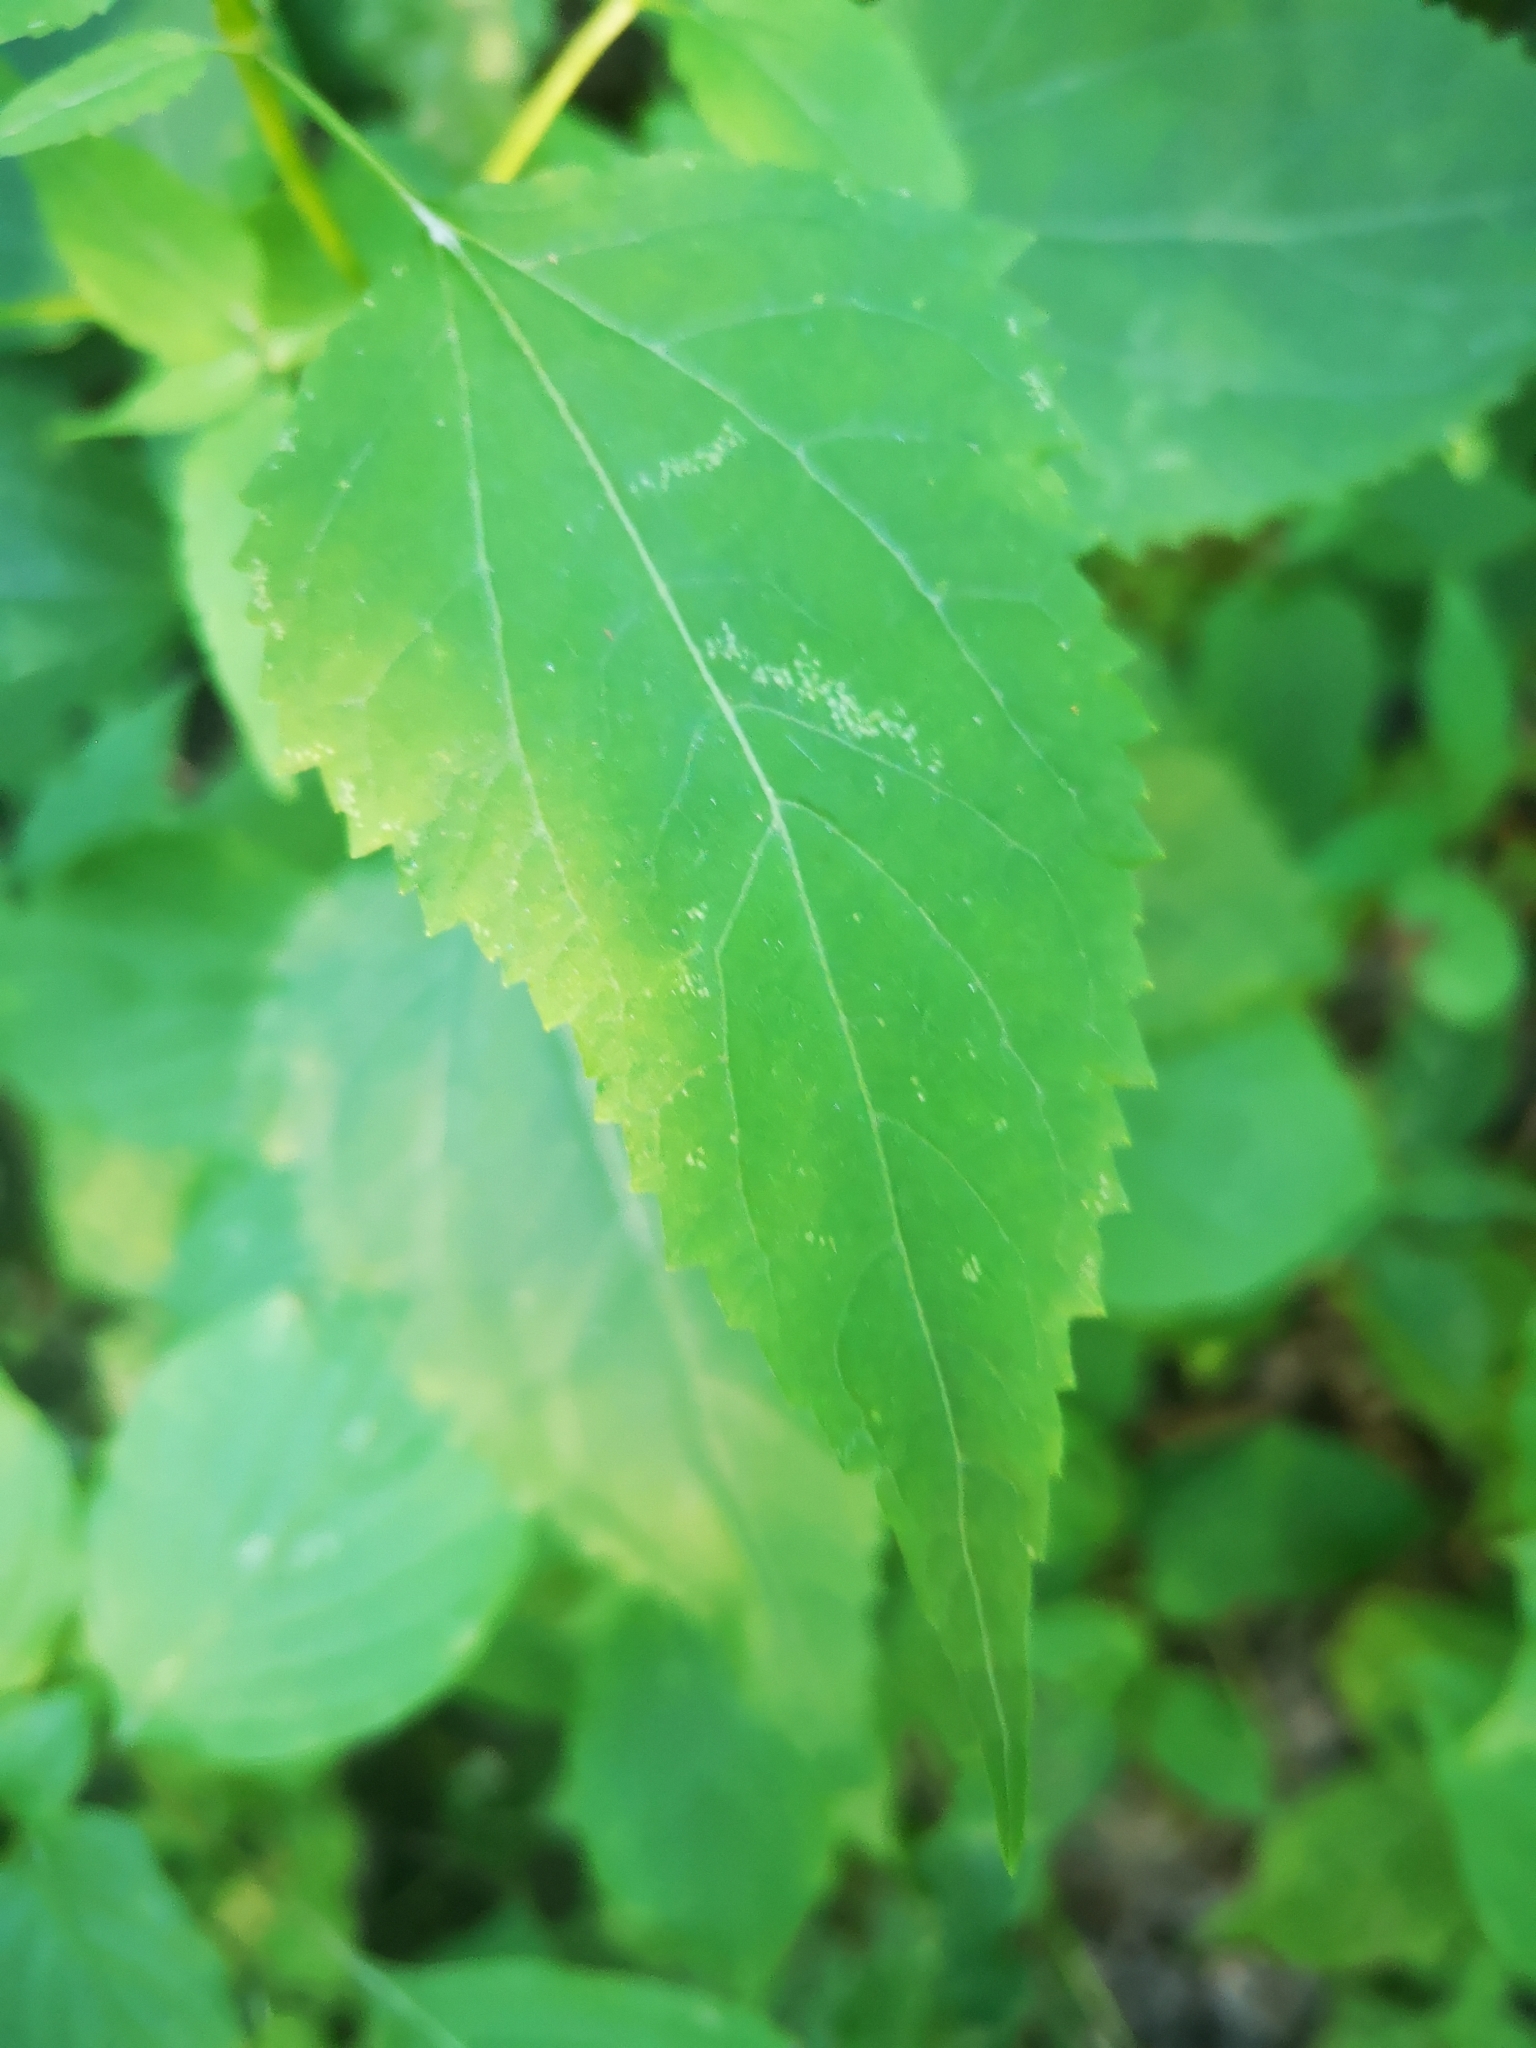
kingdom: Plantae
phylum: Tracheophyta
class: Magnoliopsida
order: Asterales
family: Asteraceae
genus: Ageratina
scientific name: Ageratina altissima
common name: White snakeroot
